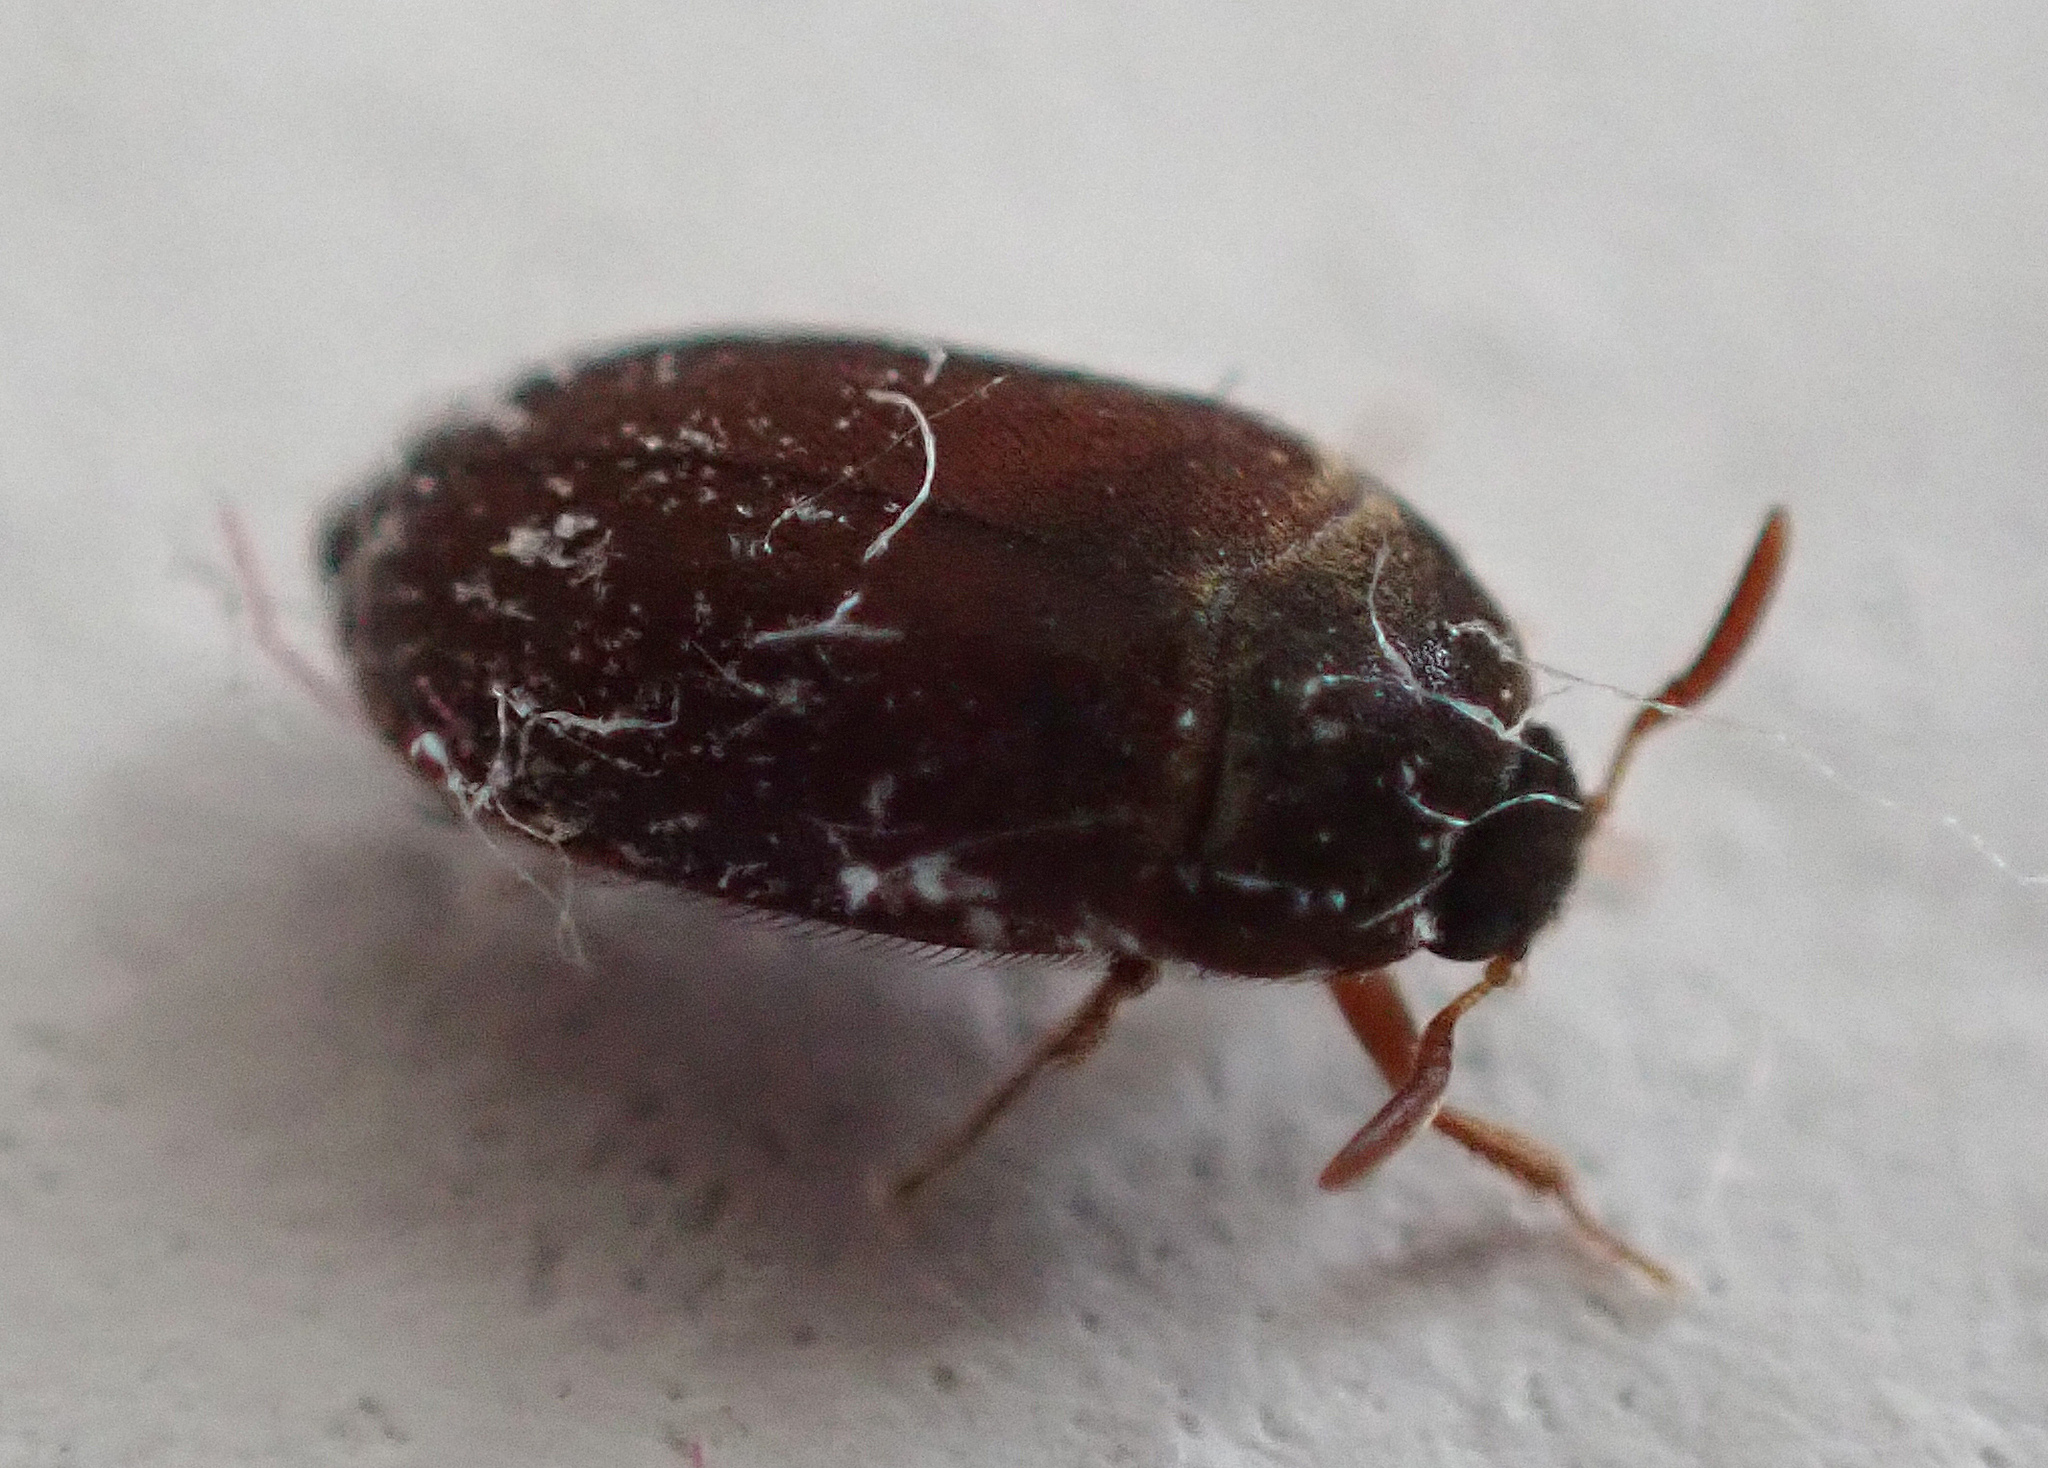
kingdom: Animalia
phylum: Arthropoda
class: Insecta
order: Coleoptera
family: Dermestidae
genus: Attagenus
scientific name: Attagenus smirnovi
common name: Brown carpet beetle
